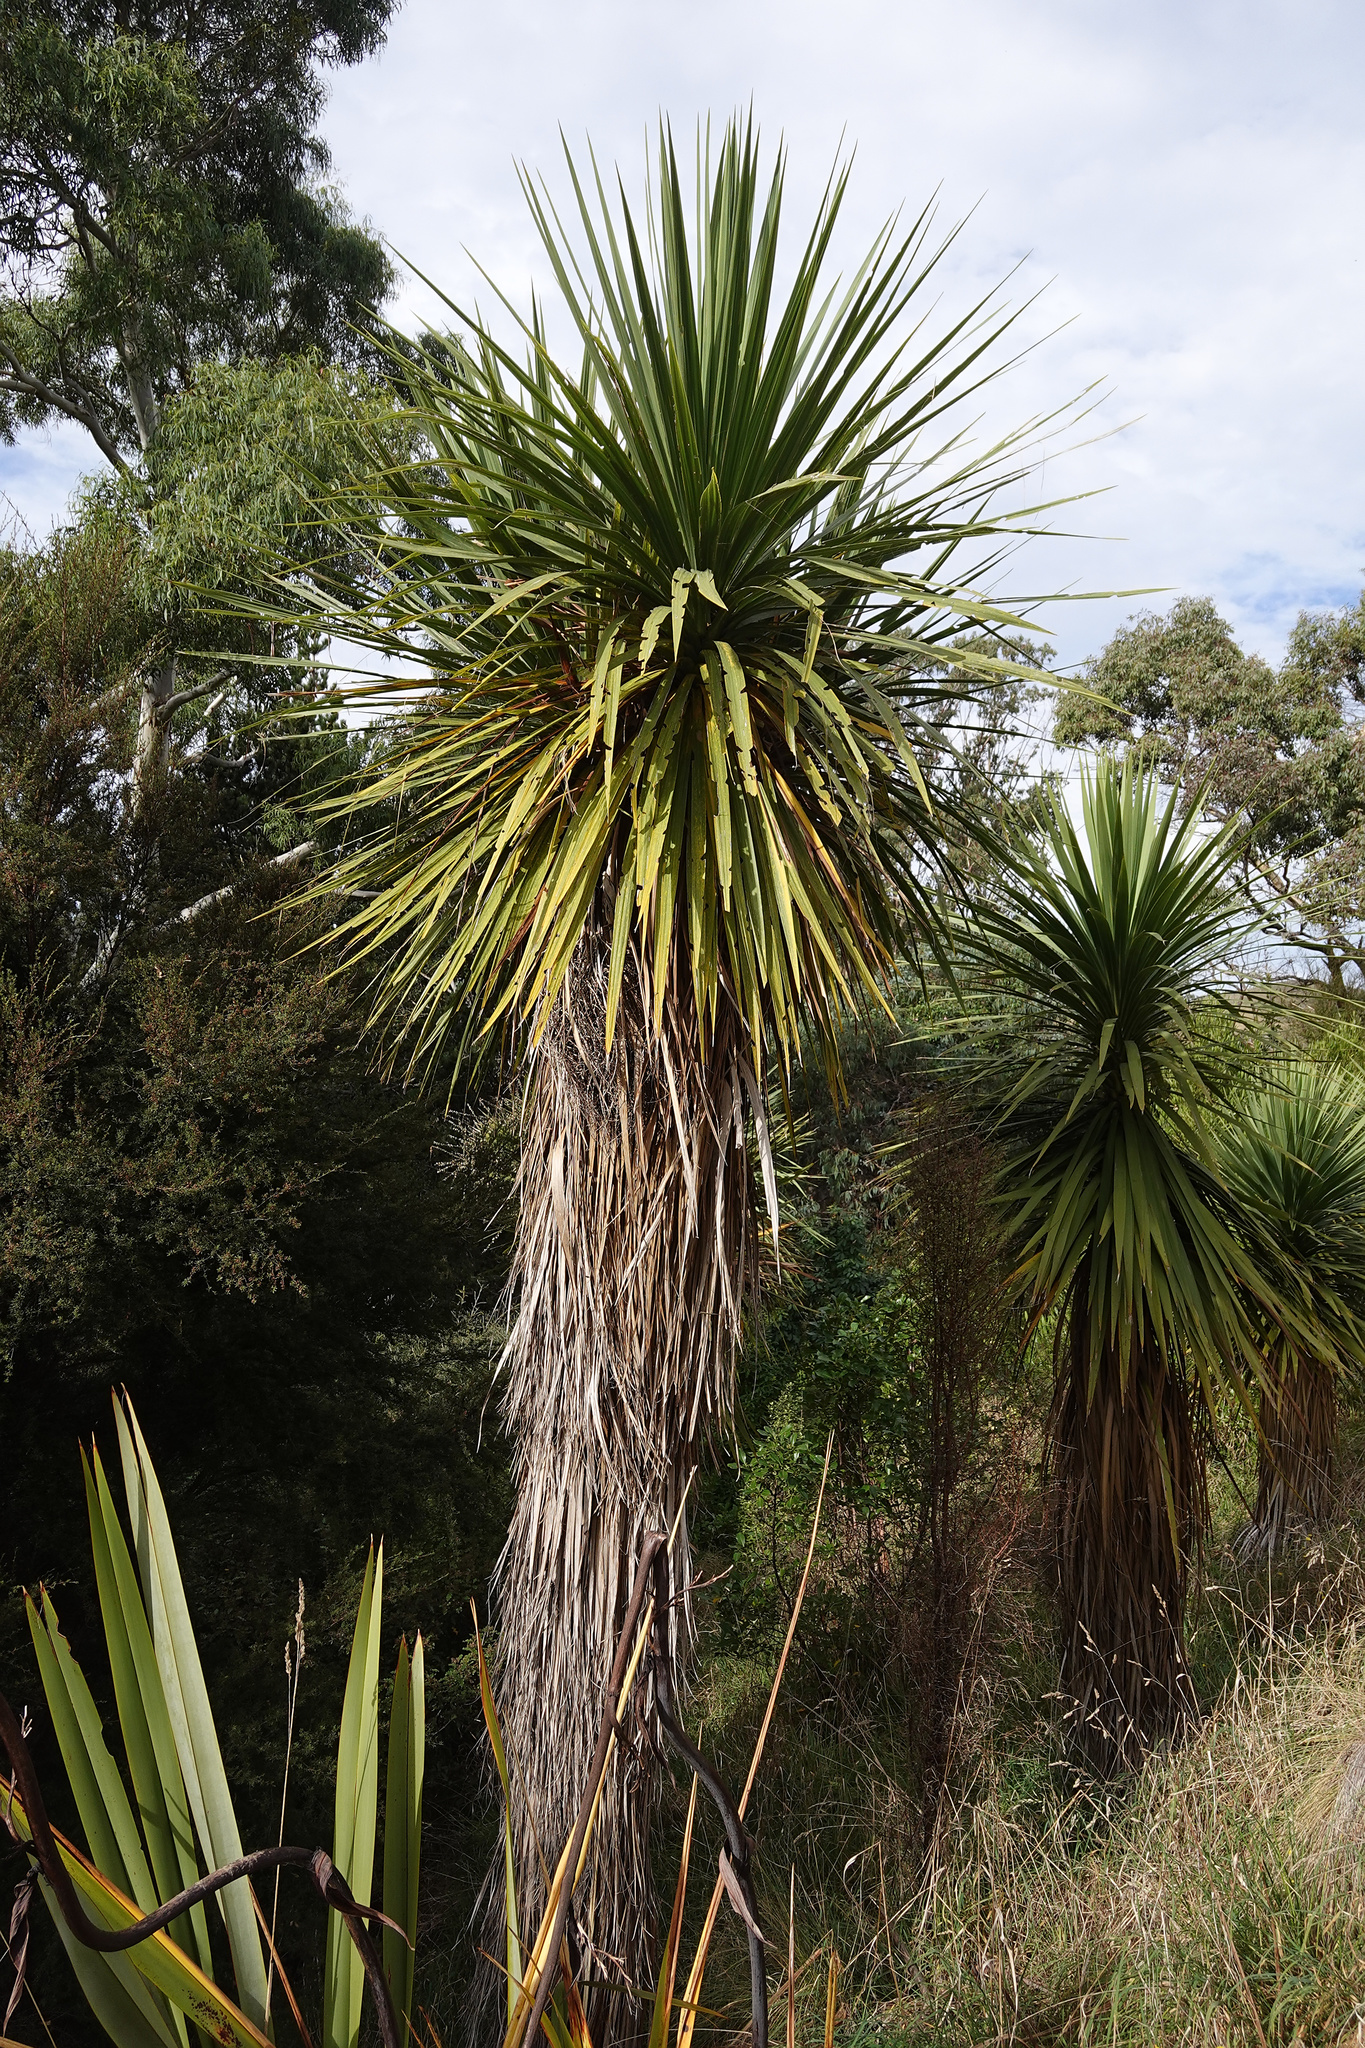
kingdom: Plantae
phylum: Tracheophyta
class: Liliopsida
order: Asparagales
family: Asparagaceae
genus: Cordyline
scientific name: Cordyline australis
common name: Cabbage-palm
